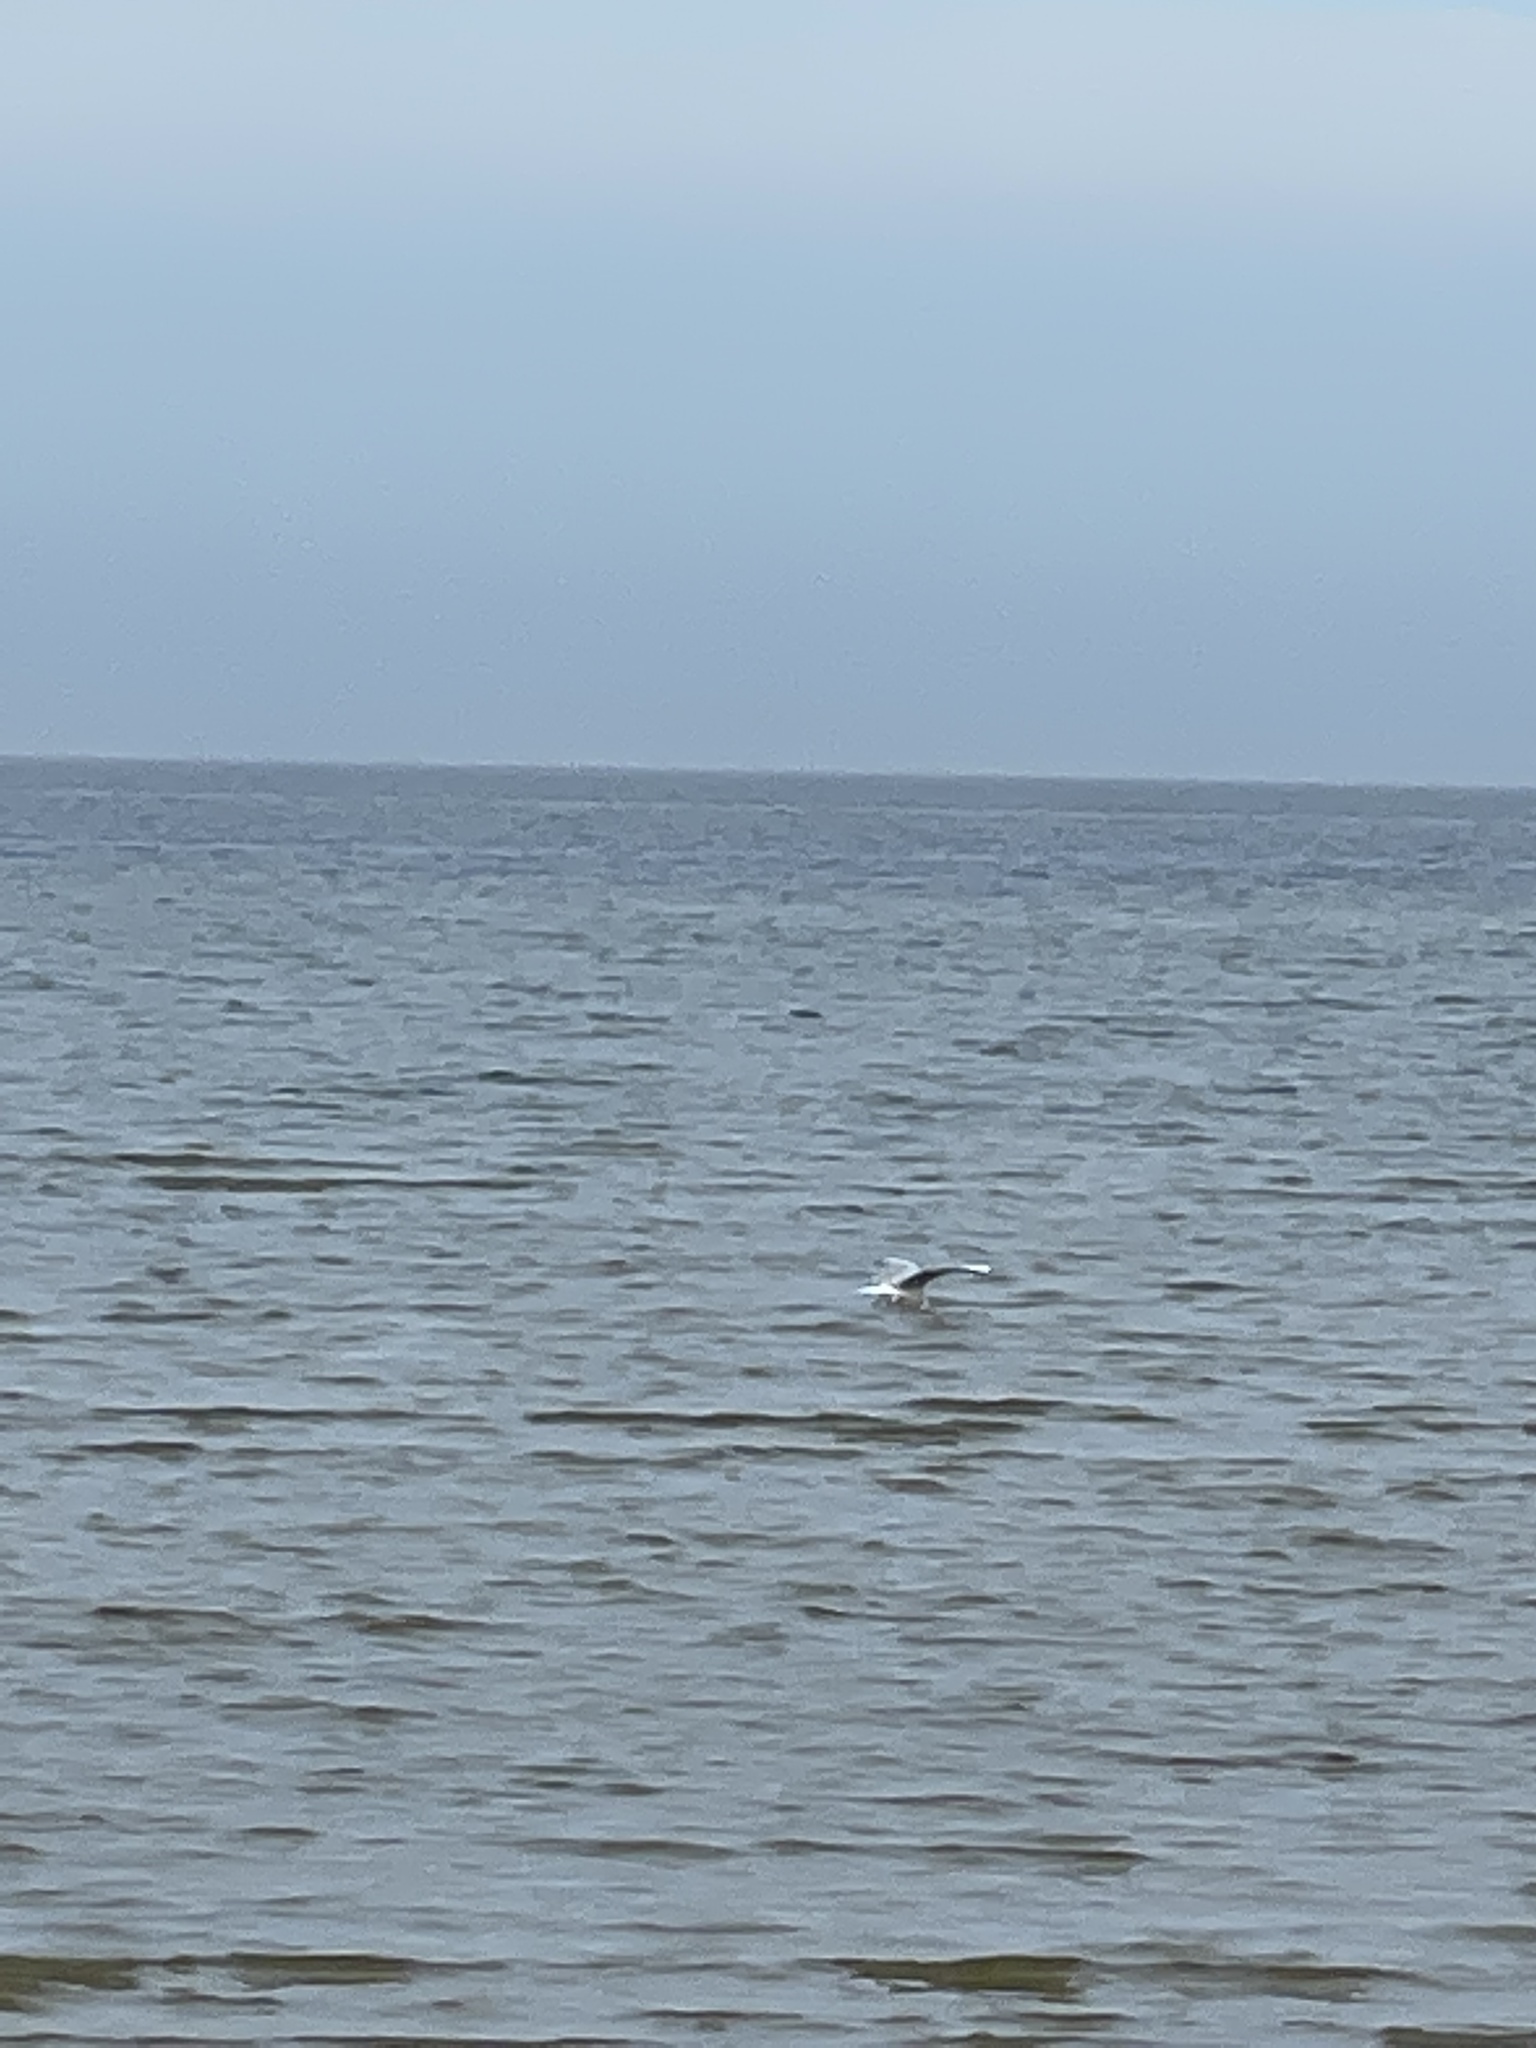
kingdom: Animalia
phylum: Chordata
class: Aves
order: Charadriiformes
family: Laridae
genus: Chroicocephalus
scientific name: Chroicocephalus ridibundus
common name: Black-headed gull
